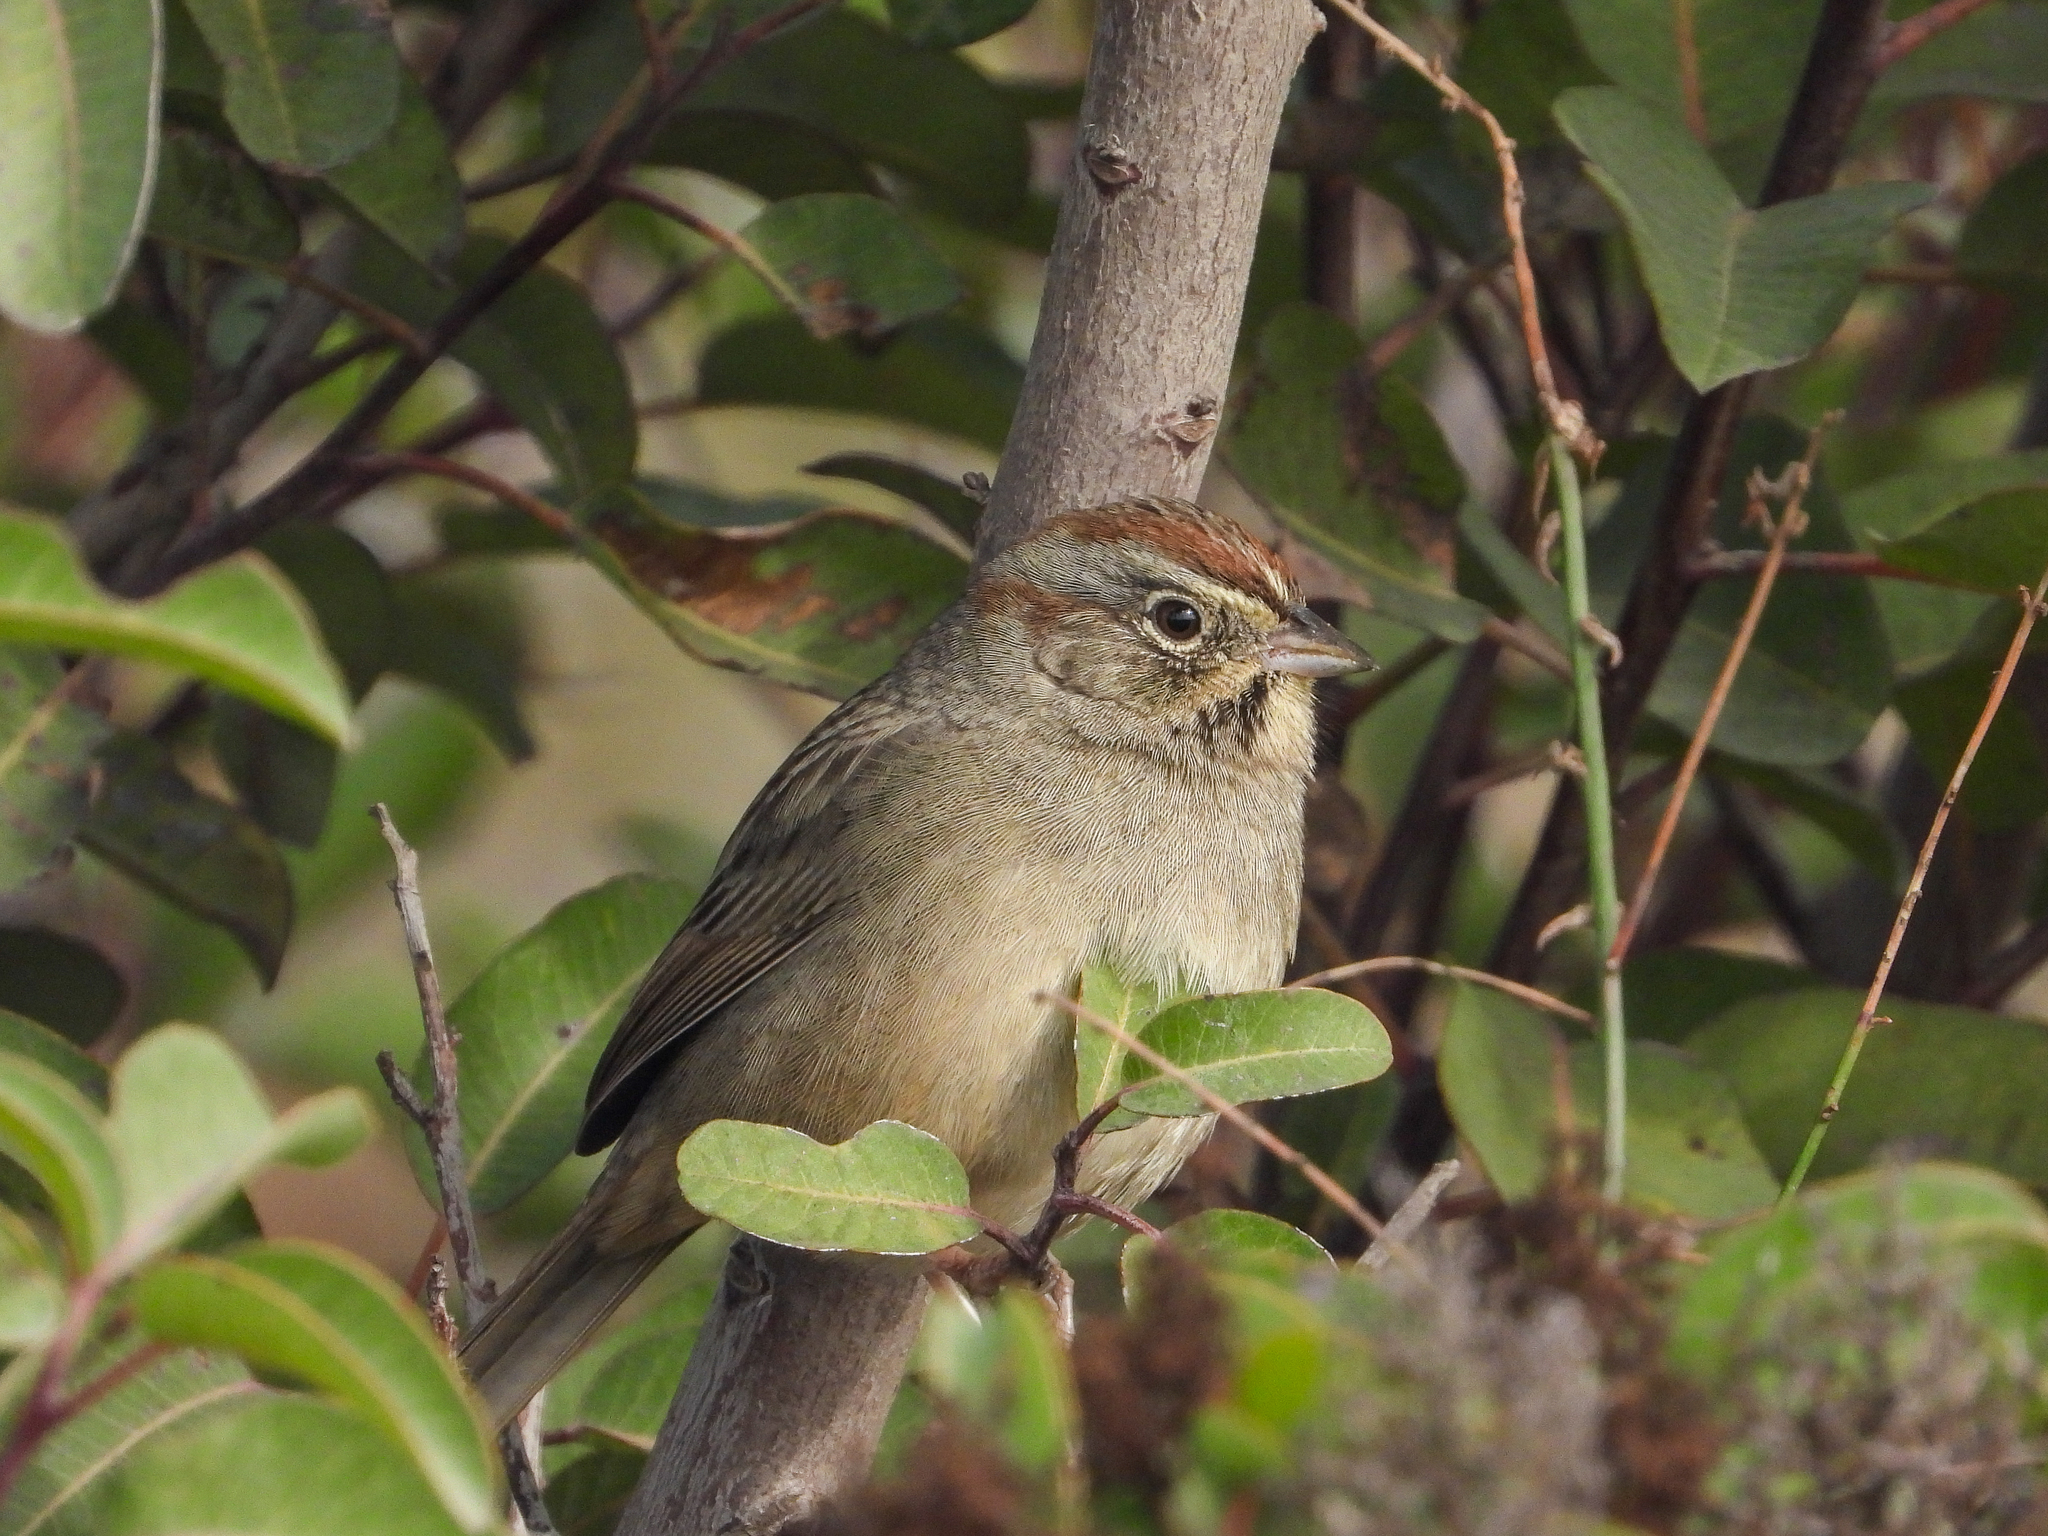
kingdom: Animalia
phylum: Chordata
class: Aves
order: Passeriformes
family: Passerellidae
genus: Aimophila
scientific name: Aimophila ruficeps
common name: Rufous-crowned sparrow
